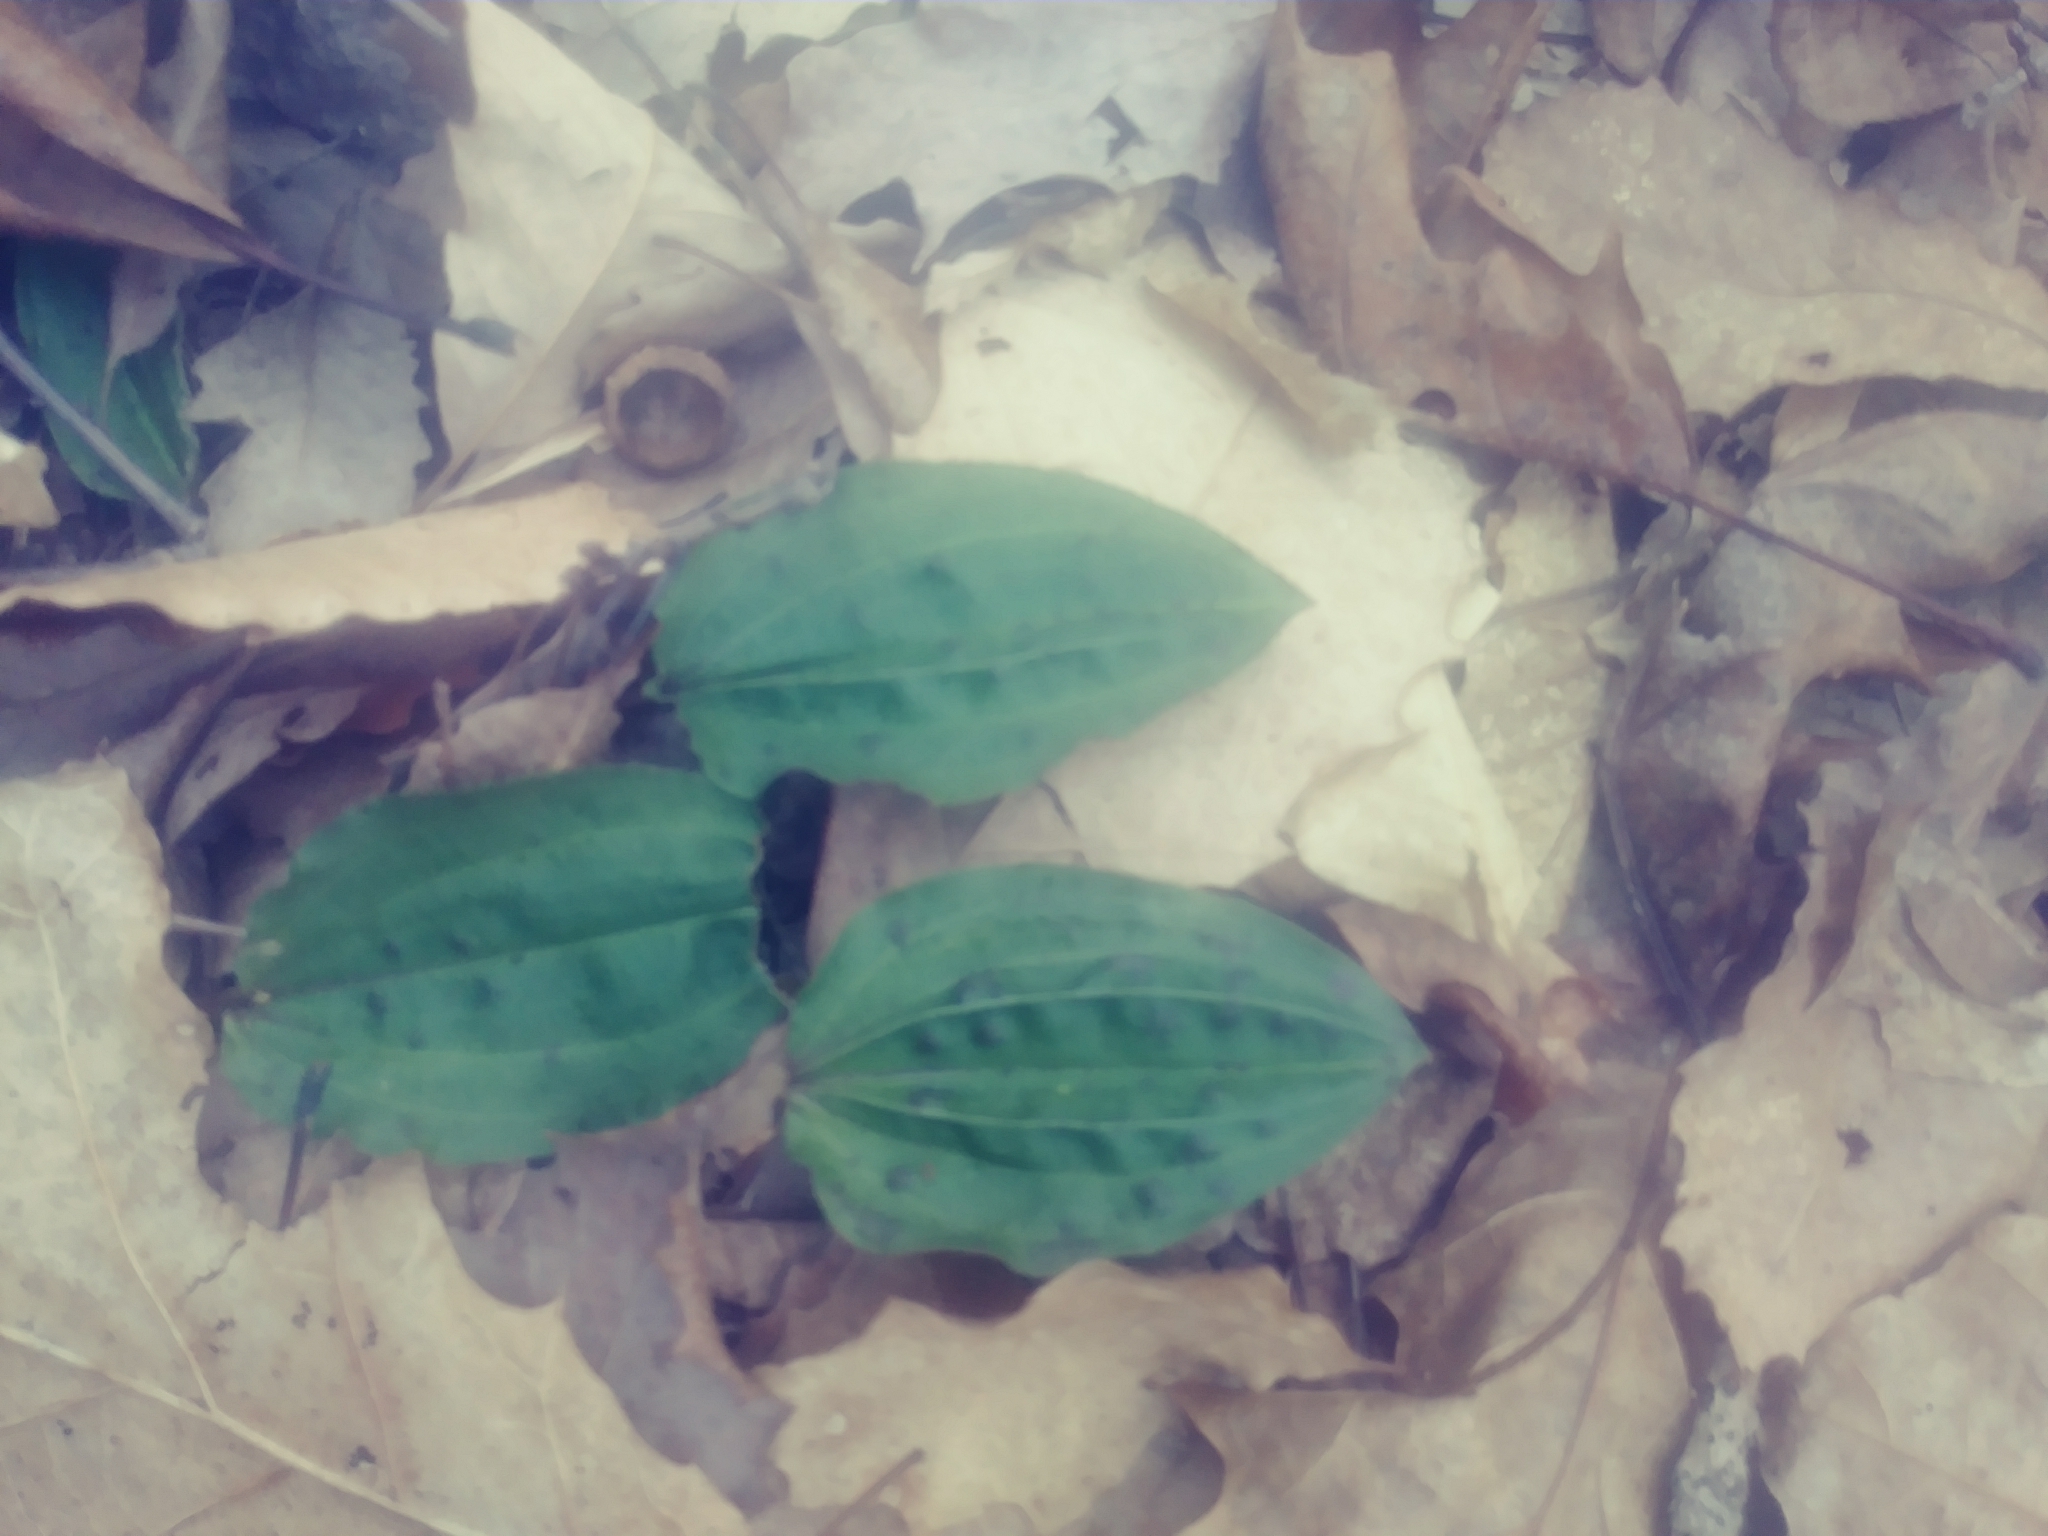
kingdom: Plantae
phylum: Tracheophyta
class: Liliopsida
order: Asparagales
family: Orchidaceae
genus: Tipularia
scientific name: Tipularia discolor
